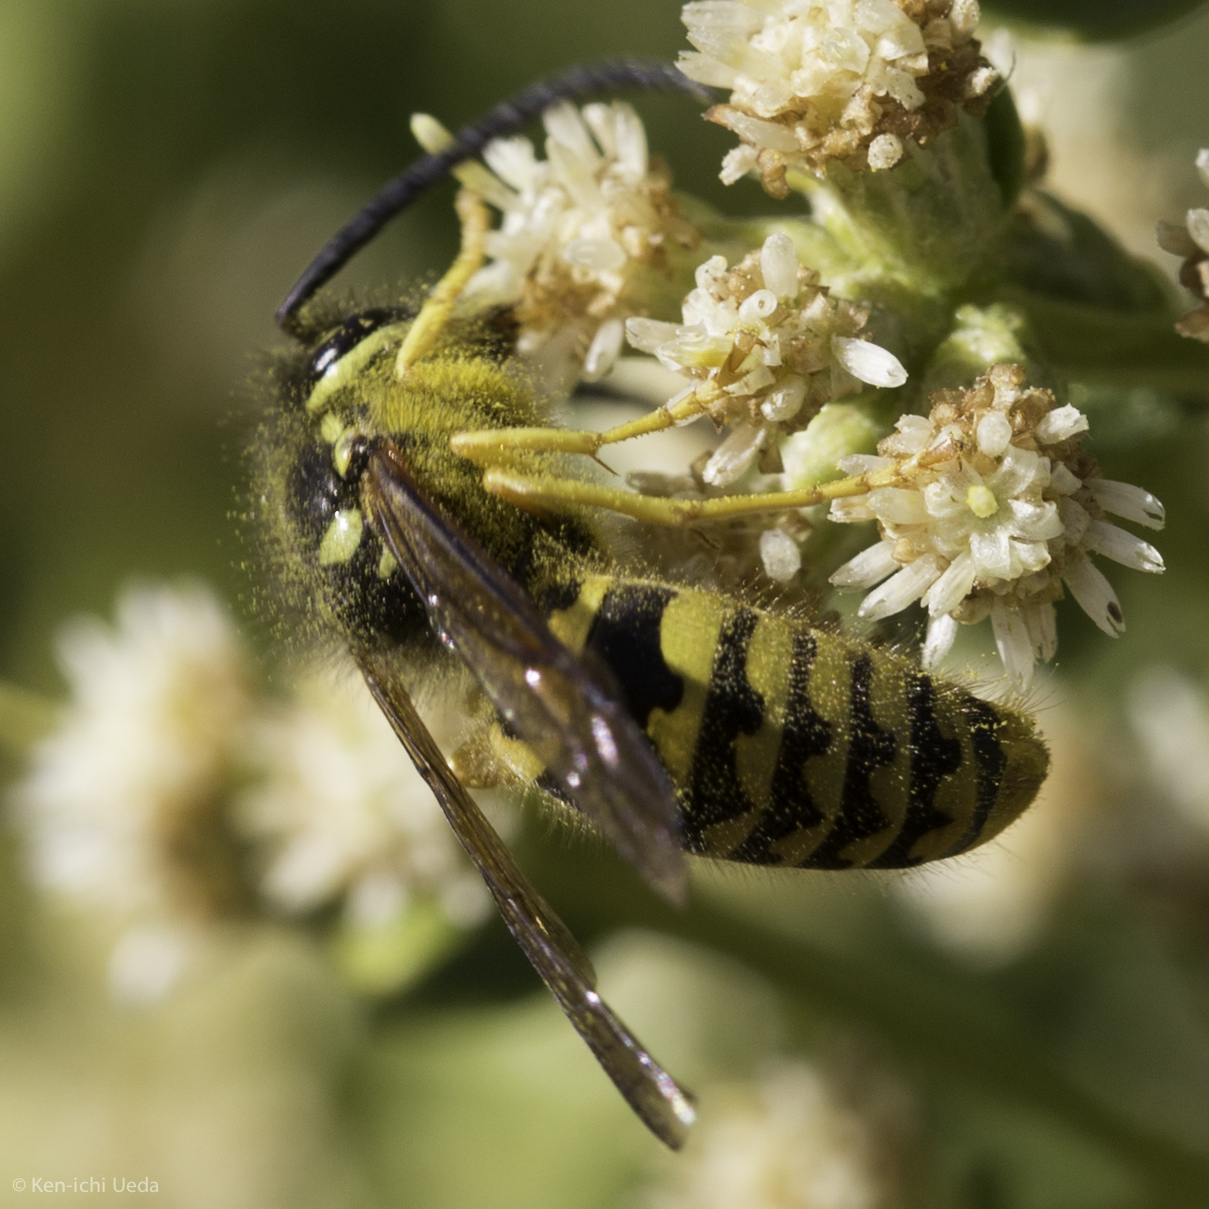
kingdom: Animalia
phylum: Arthropoda
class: Insecta
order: Hymenoptera
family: Vespidae
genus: Vespula
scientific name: Vespula pensylvanica
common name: Western yellowjacket
